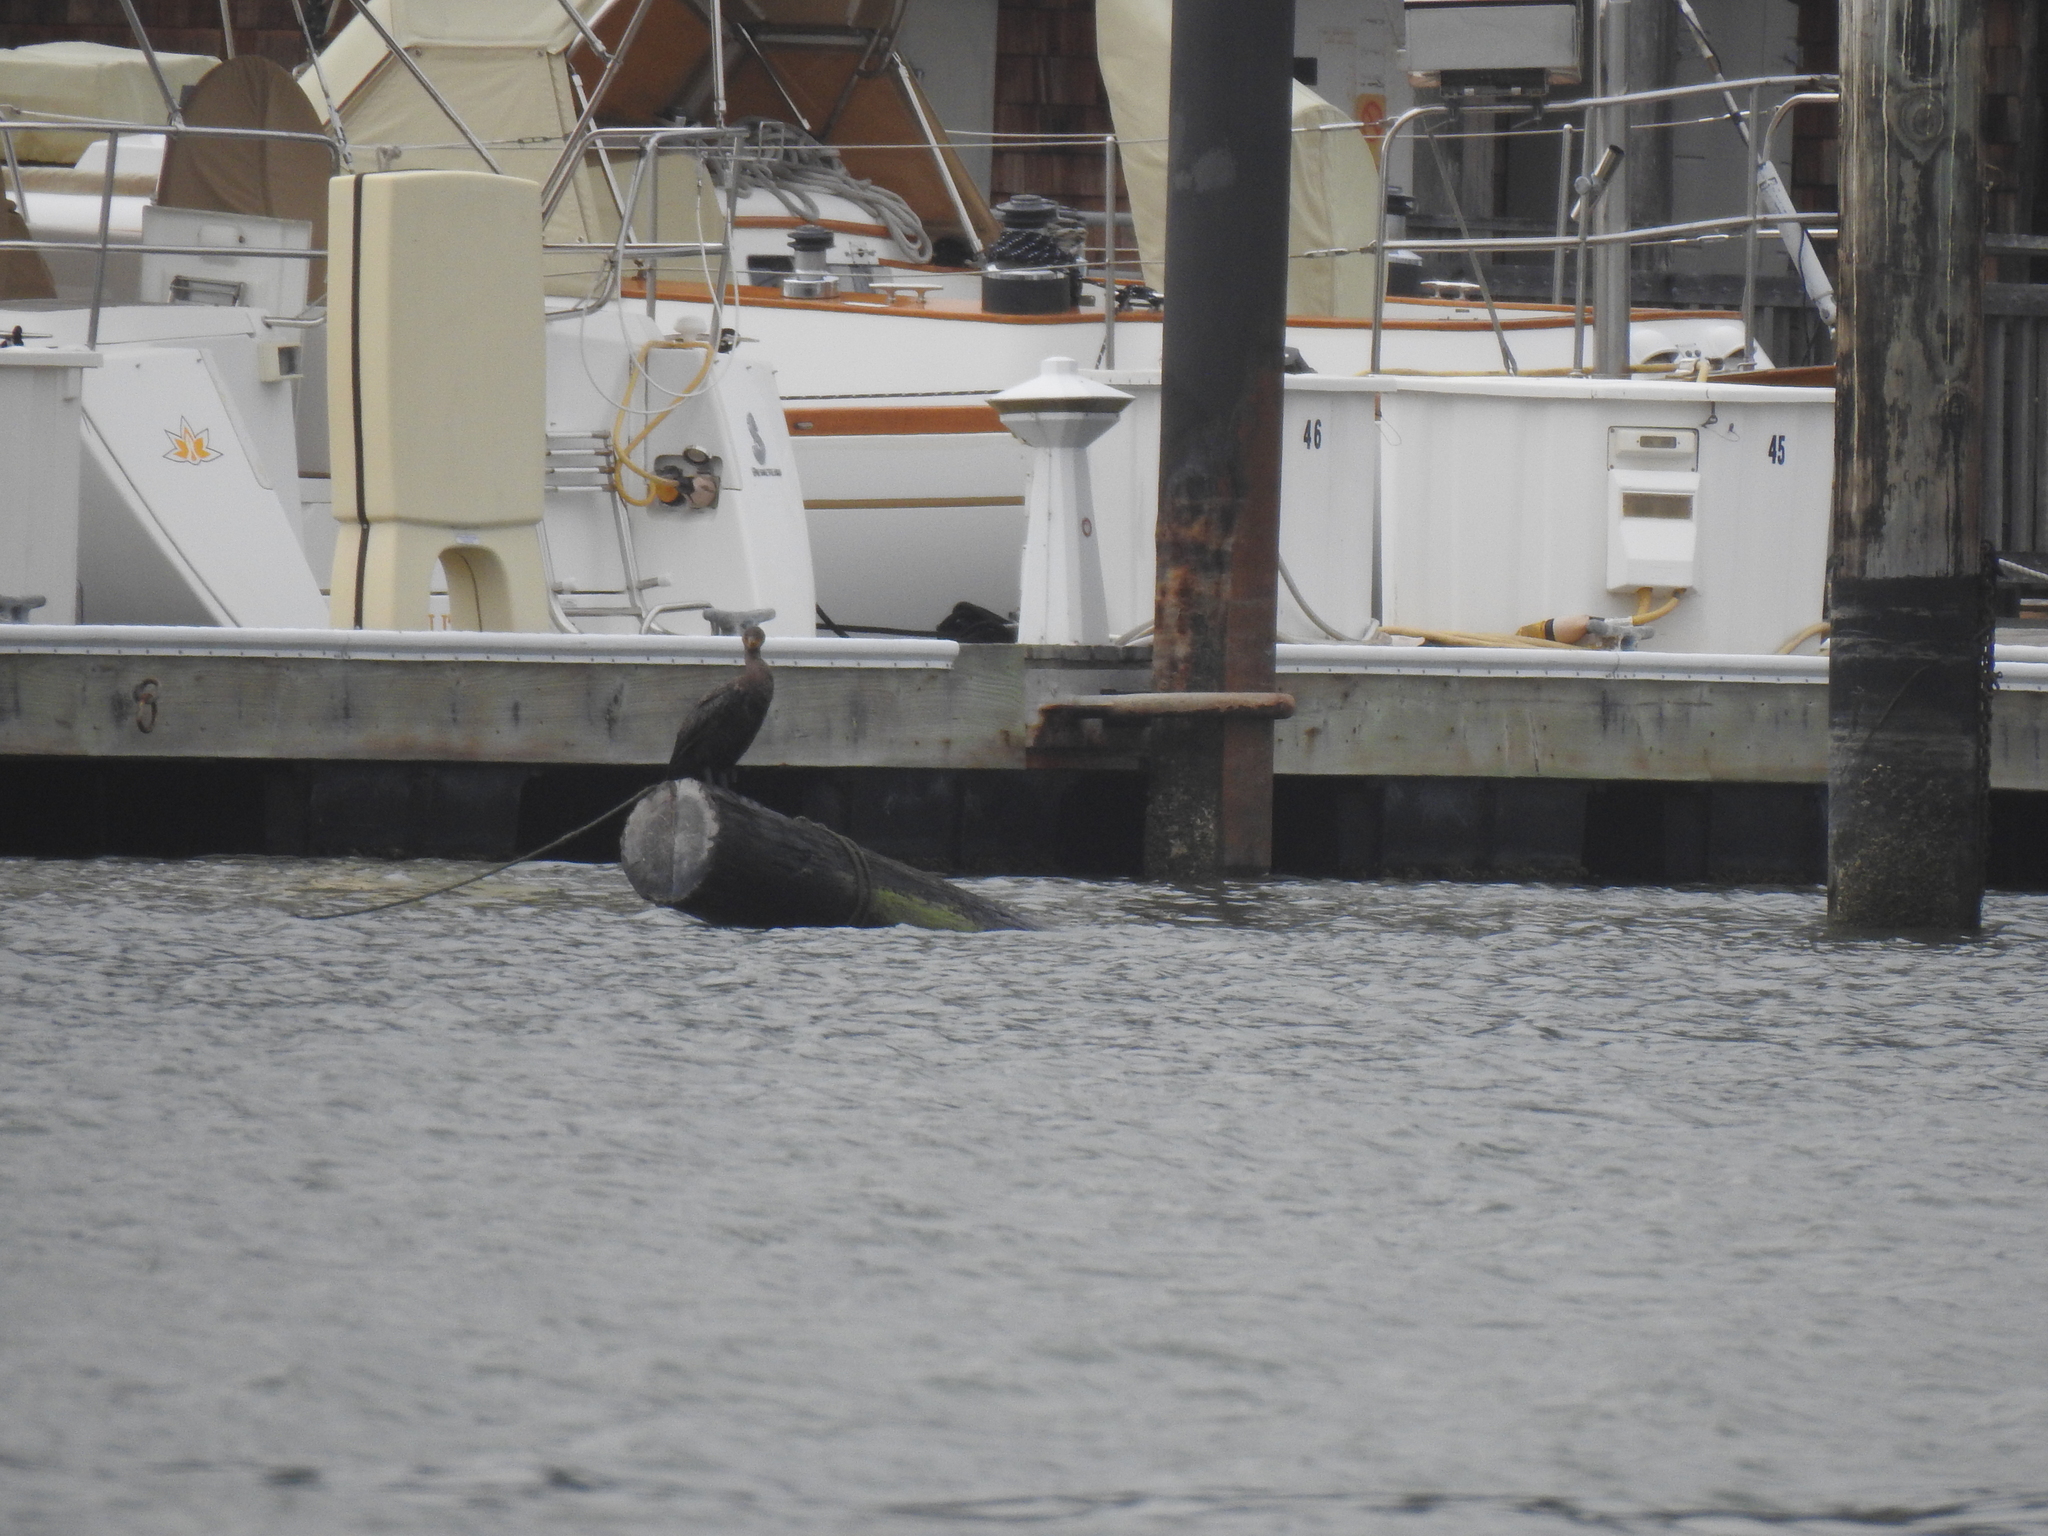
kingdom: Animalia
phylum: Chordata
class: Aves
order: Suliformes
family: Phalacrocoracidae
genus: Phalacrocorax
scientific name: Phalacrocorax auritus
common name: Double-crested cormorant
